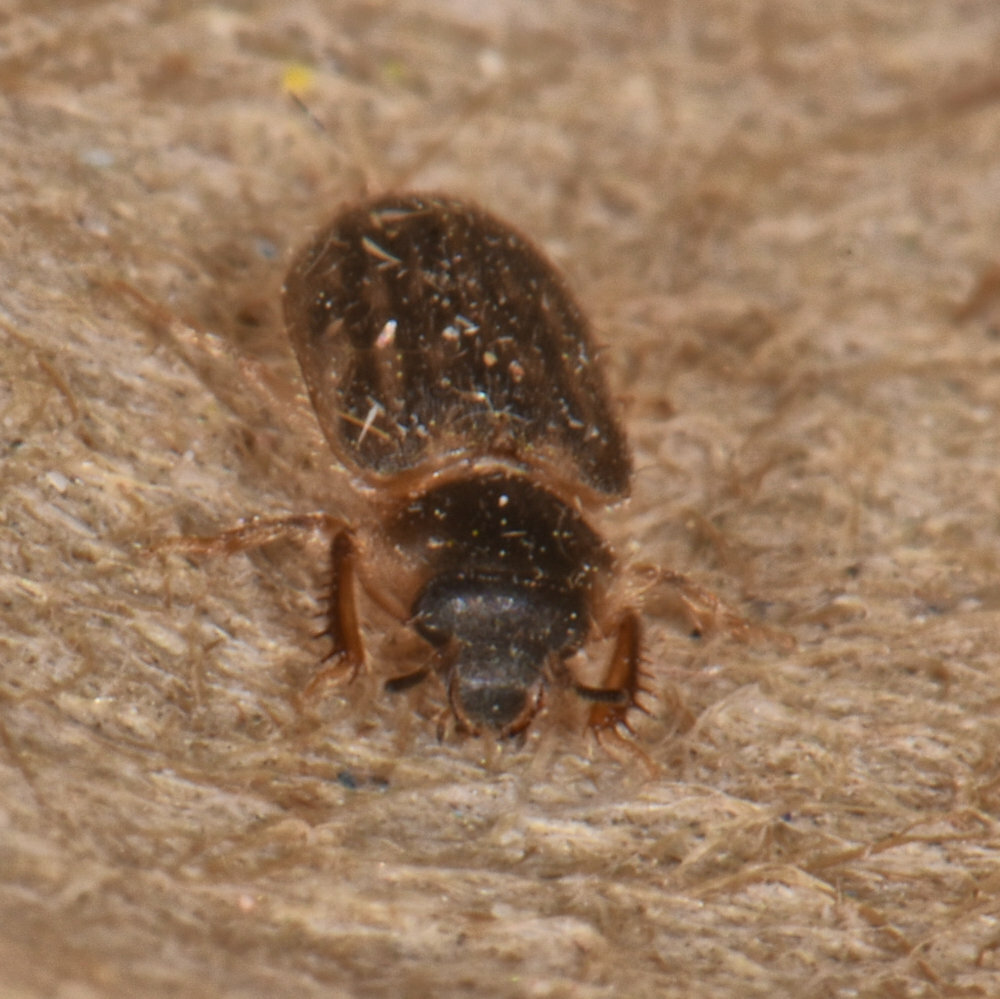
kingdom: Animalia
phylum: Arthropoda
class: Insecta
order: Coleoptera
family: Heteroceridae
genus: Heterocerus
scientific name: Heterocerus fenestratus
